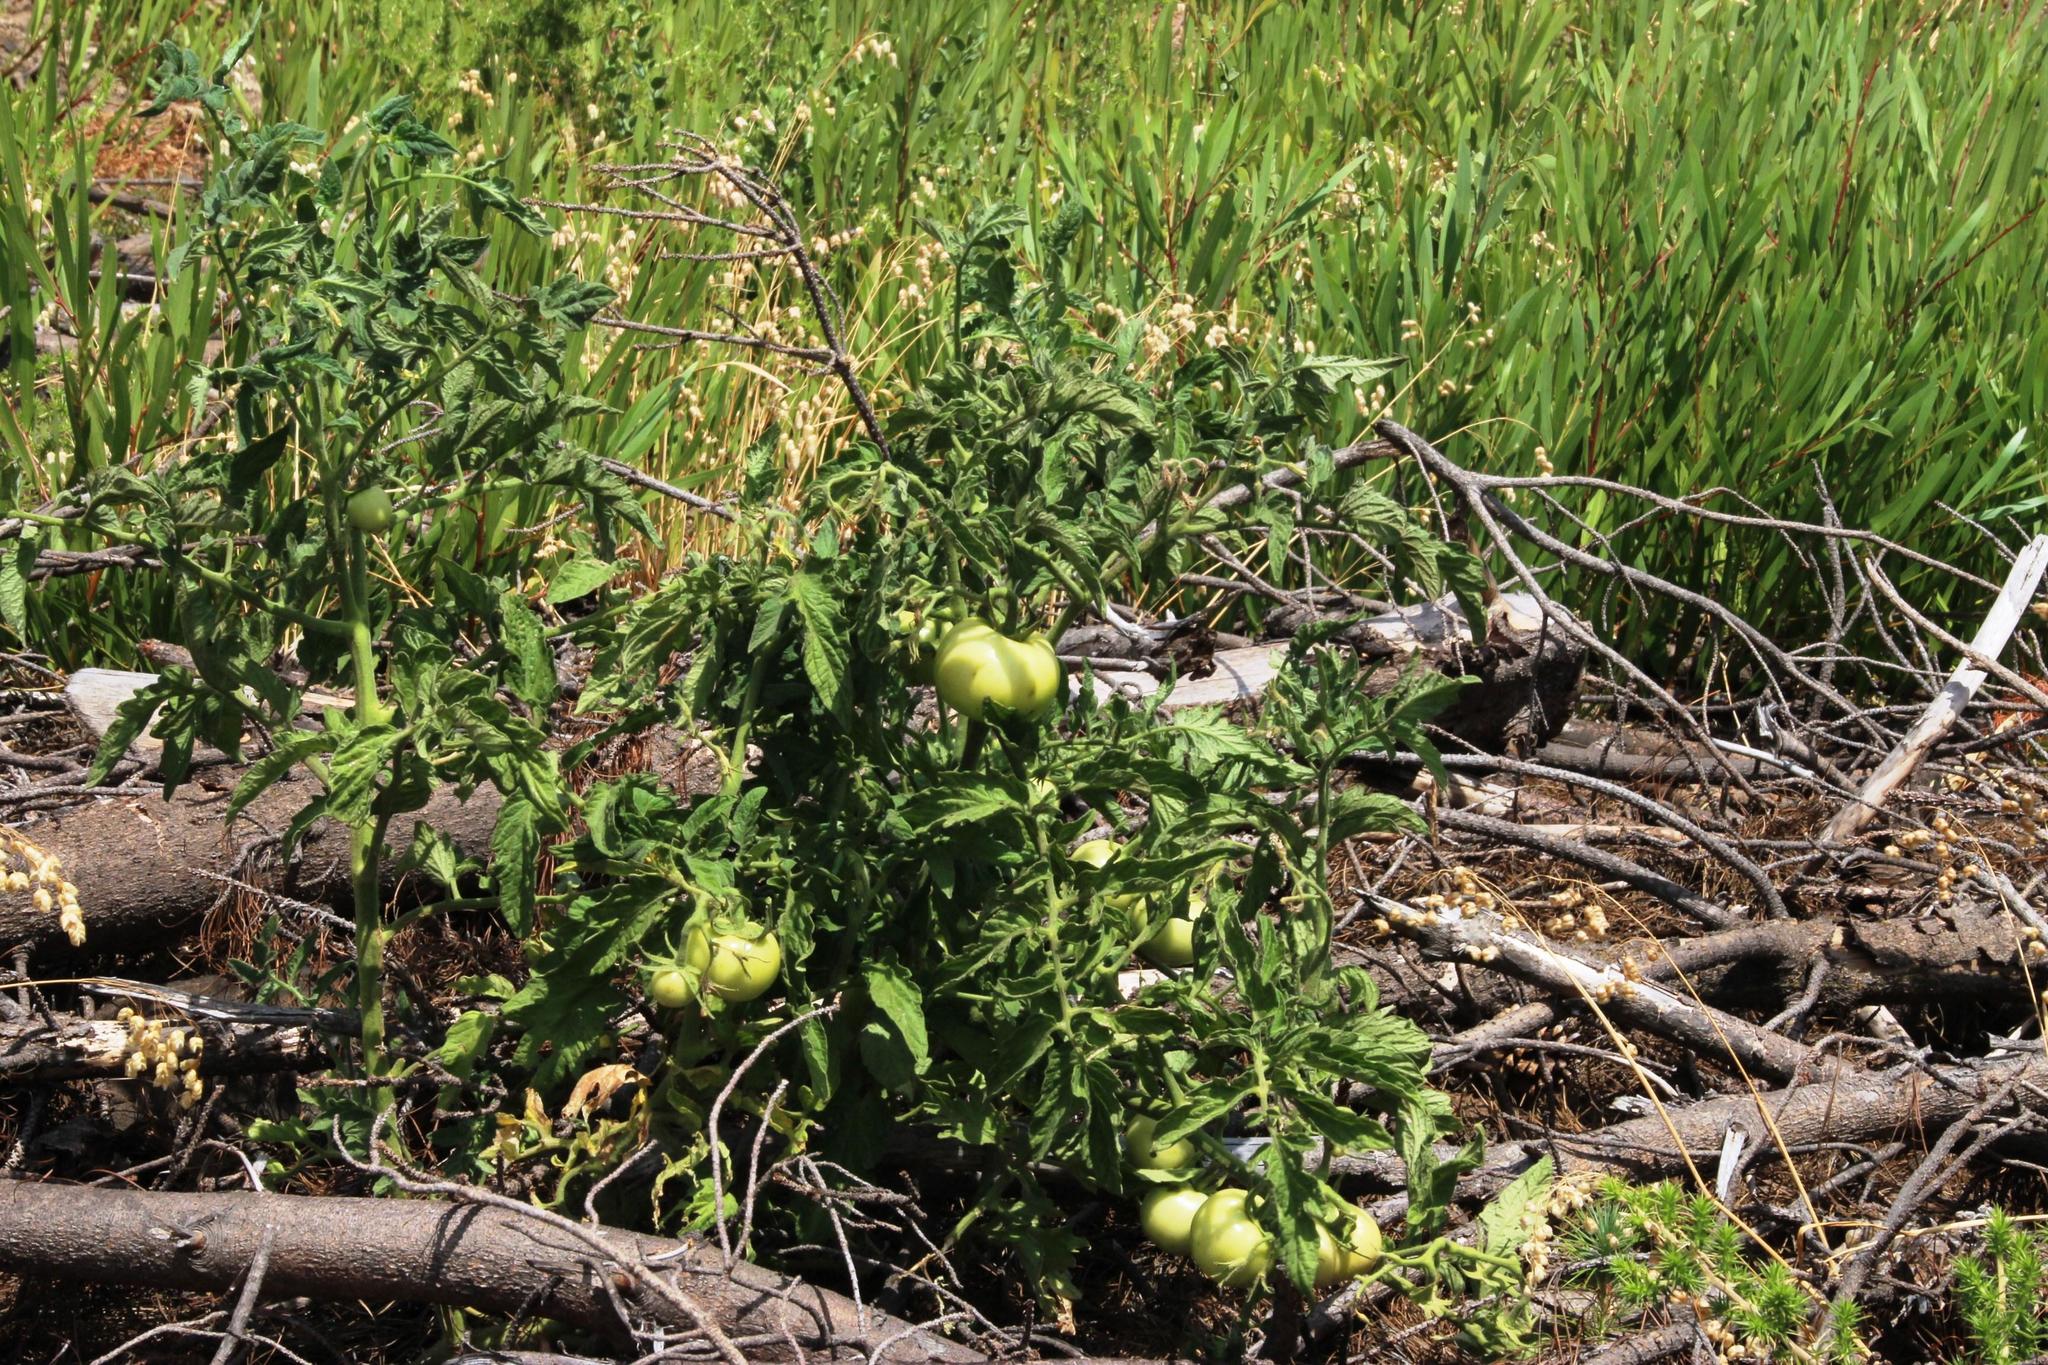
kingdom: Plantae
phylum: Tracheophyta
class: Magnoliopsida
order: Solanales
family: Solanaceae
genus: Solanum
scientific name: Solanum lycopersicum
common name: Garden tomato
